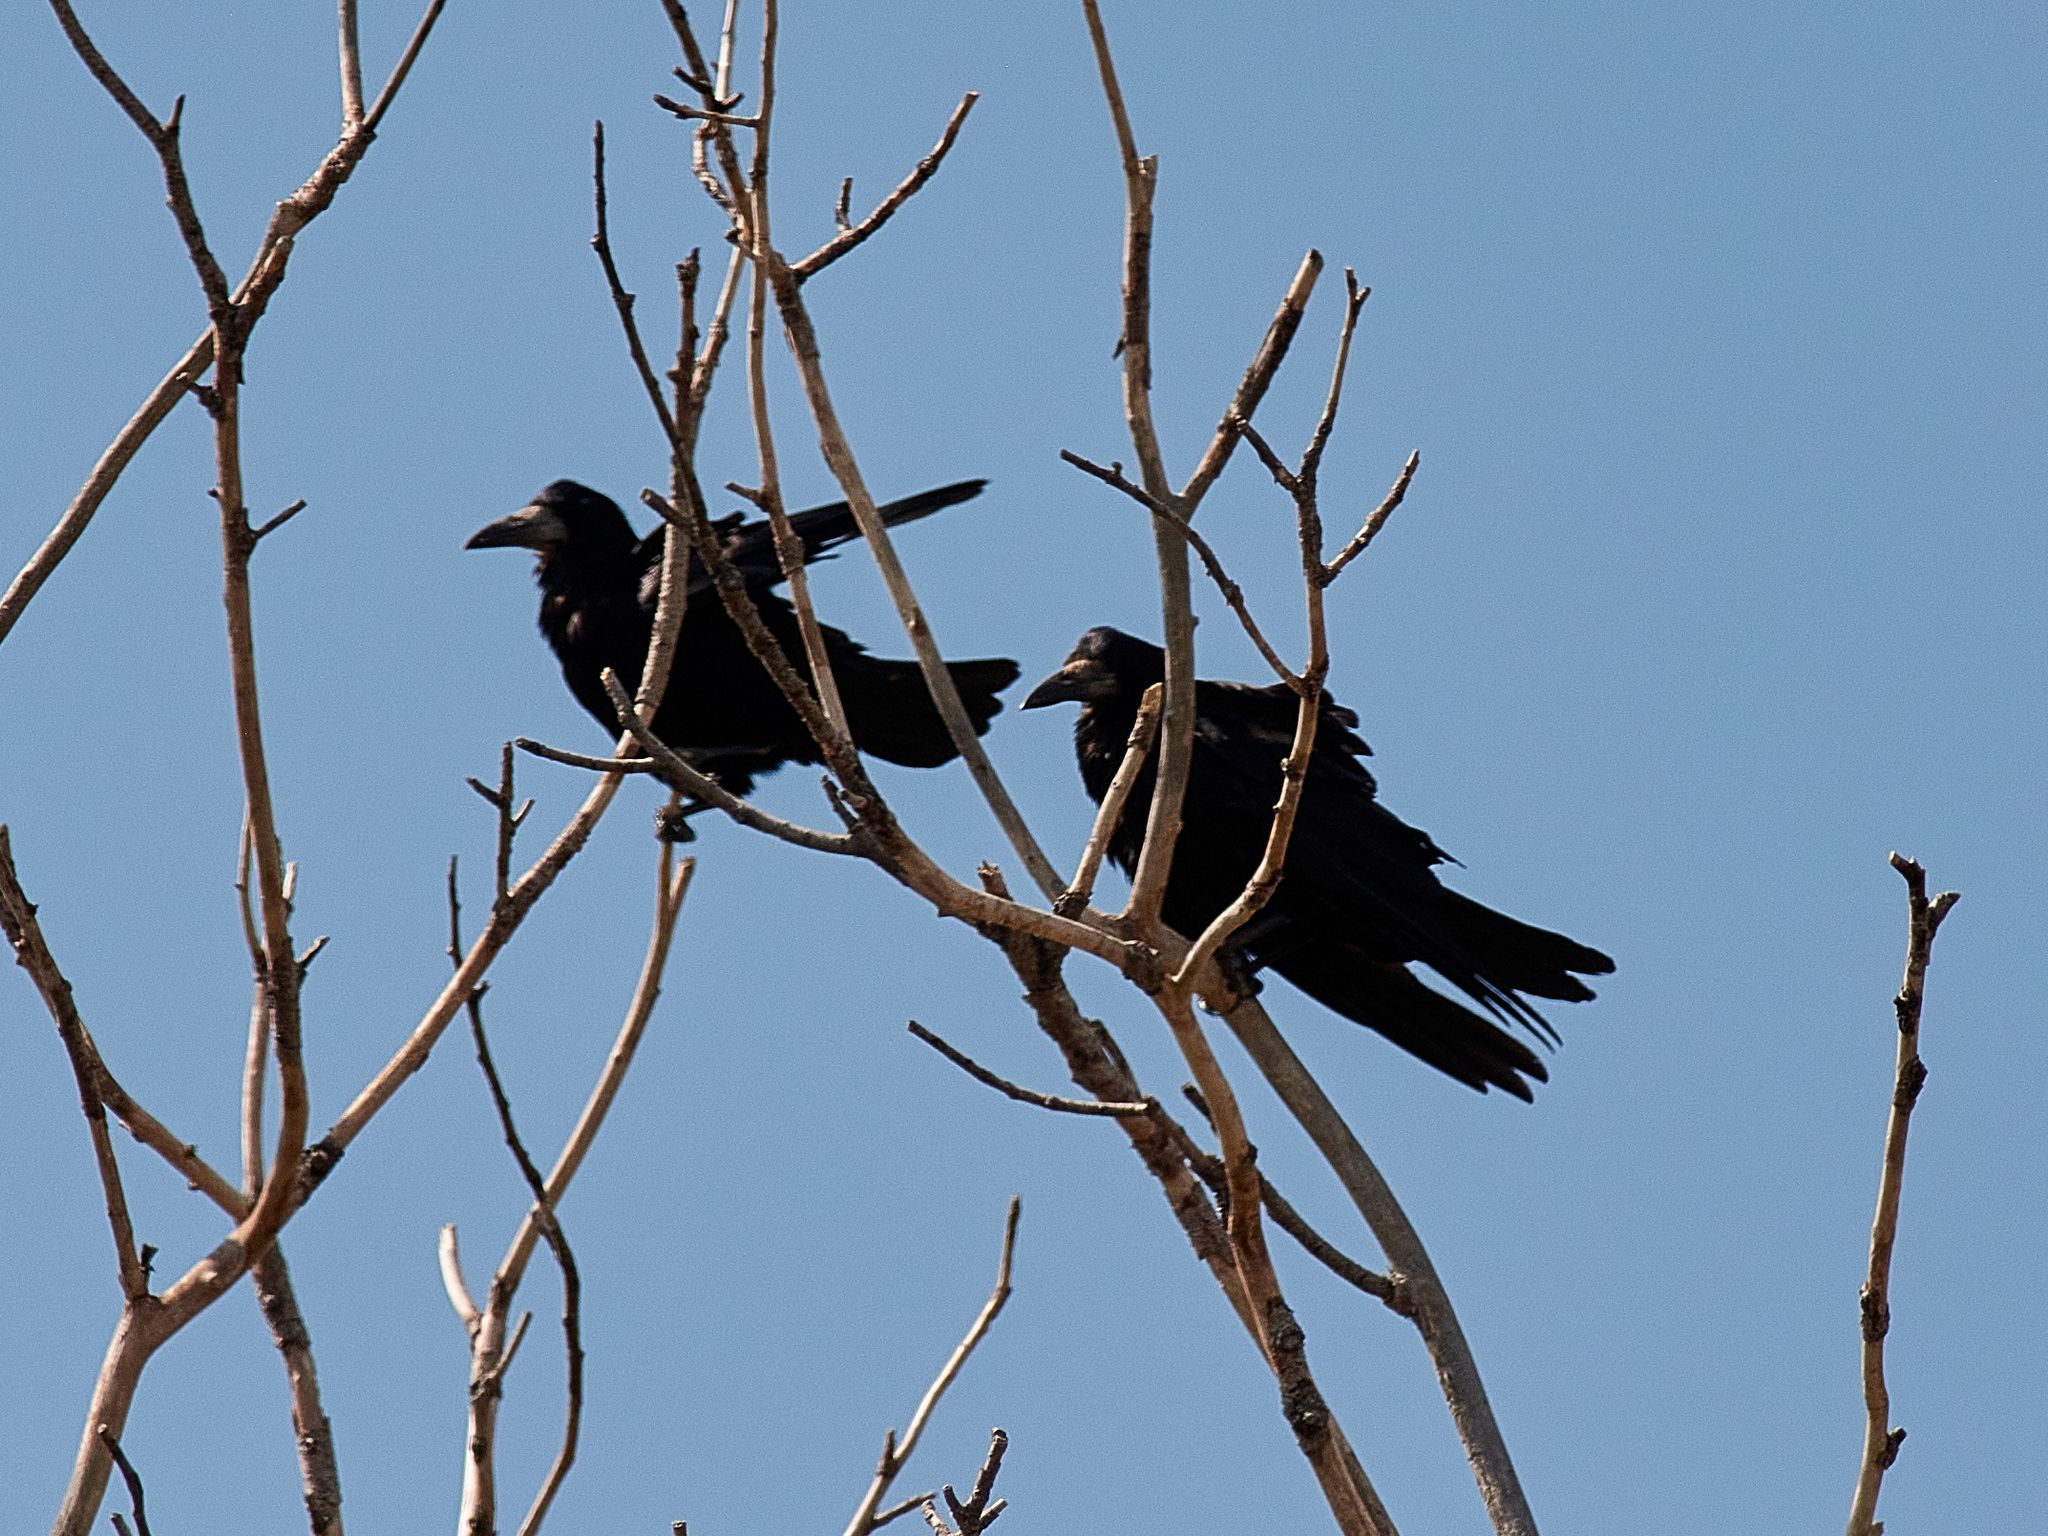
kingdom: Animalia
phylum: Chordata
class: Aves
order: Passeriformes
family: Corvidae
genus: Corvus
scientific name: Corvus frugilegus
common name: Rook
